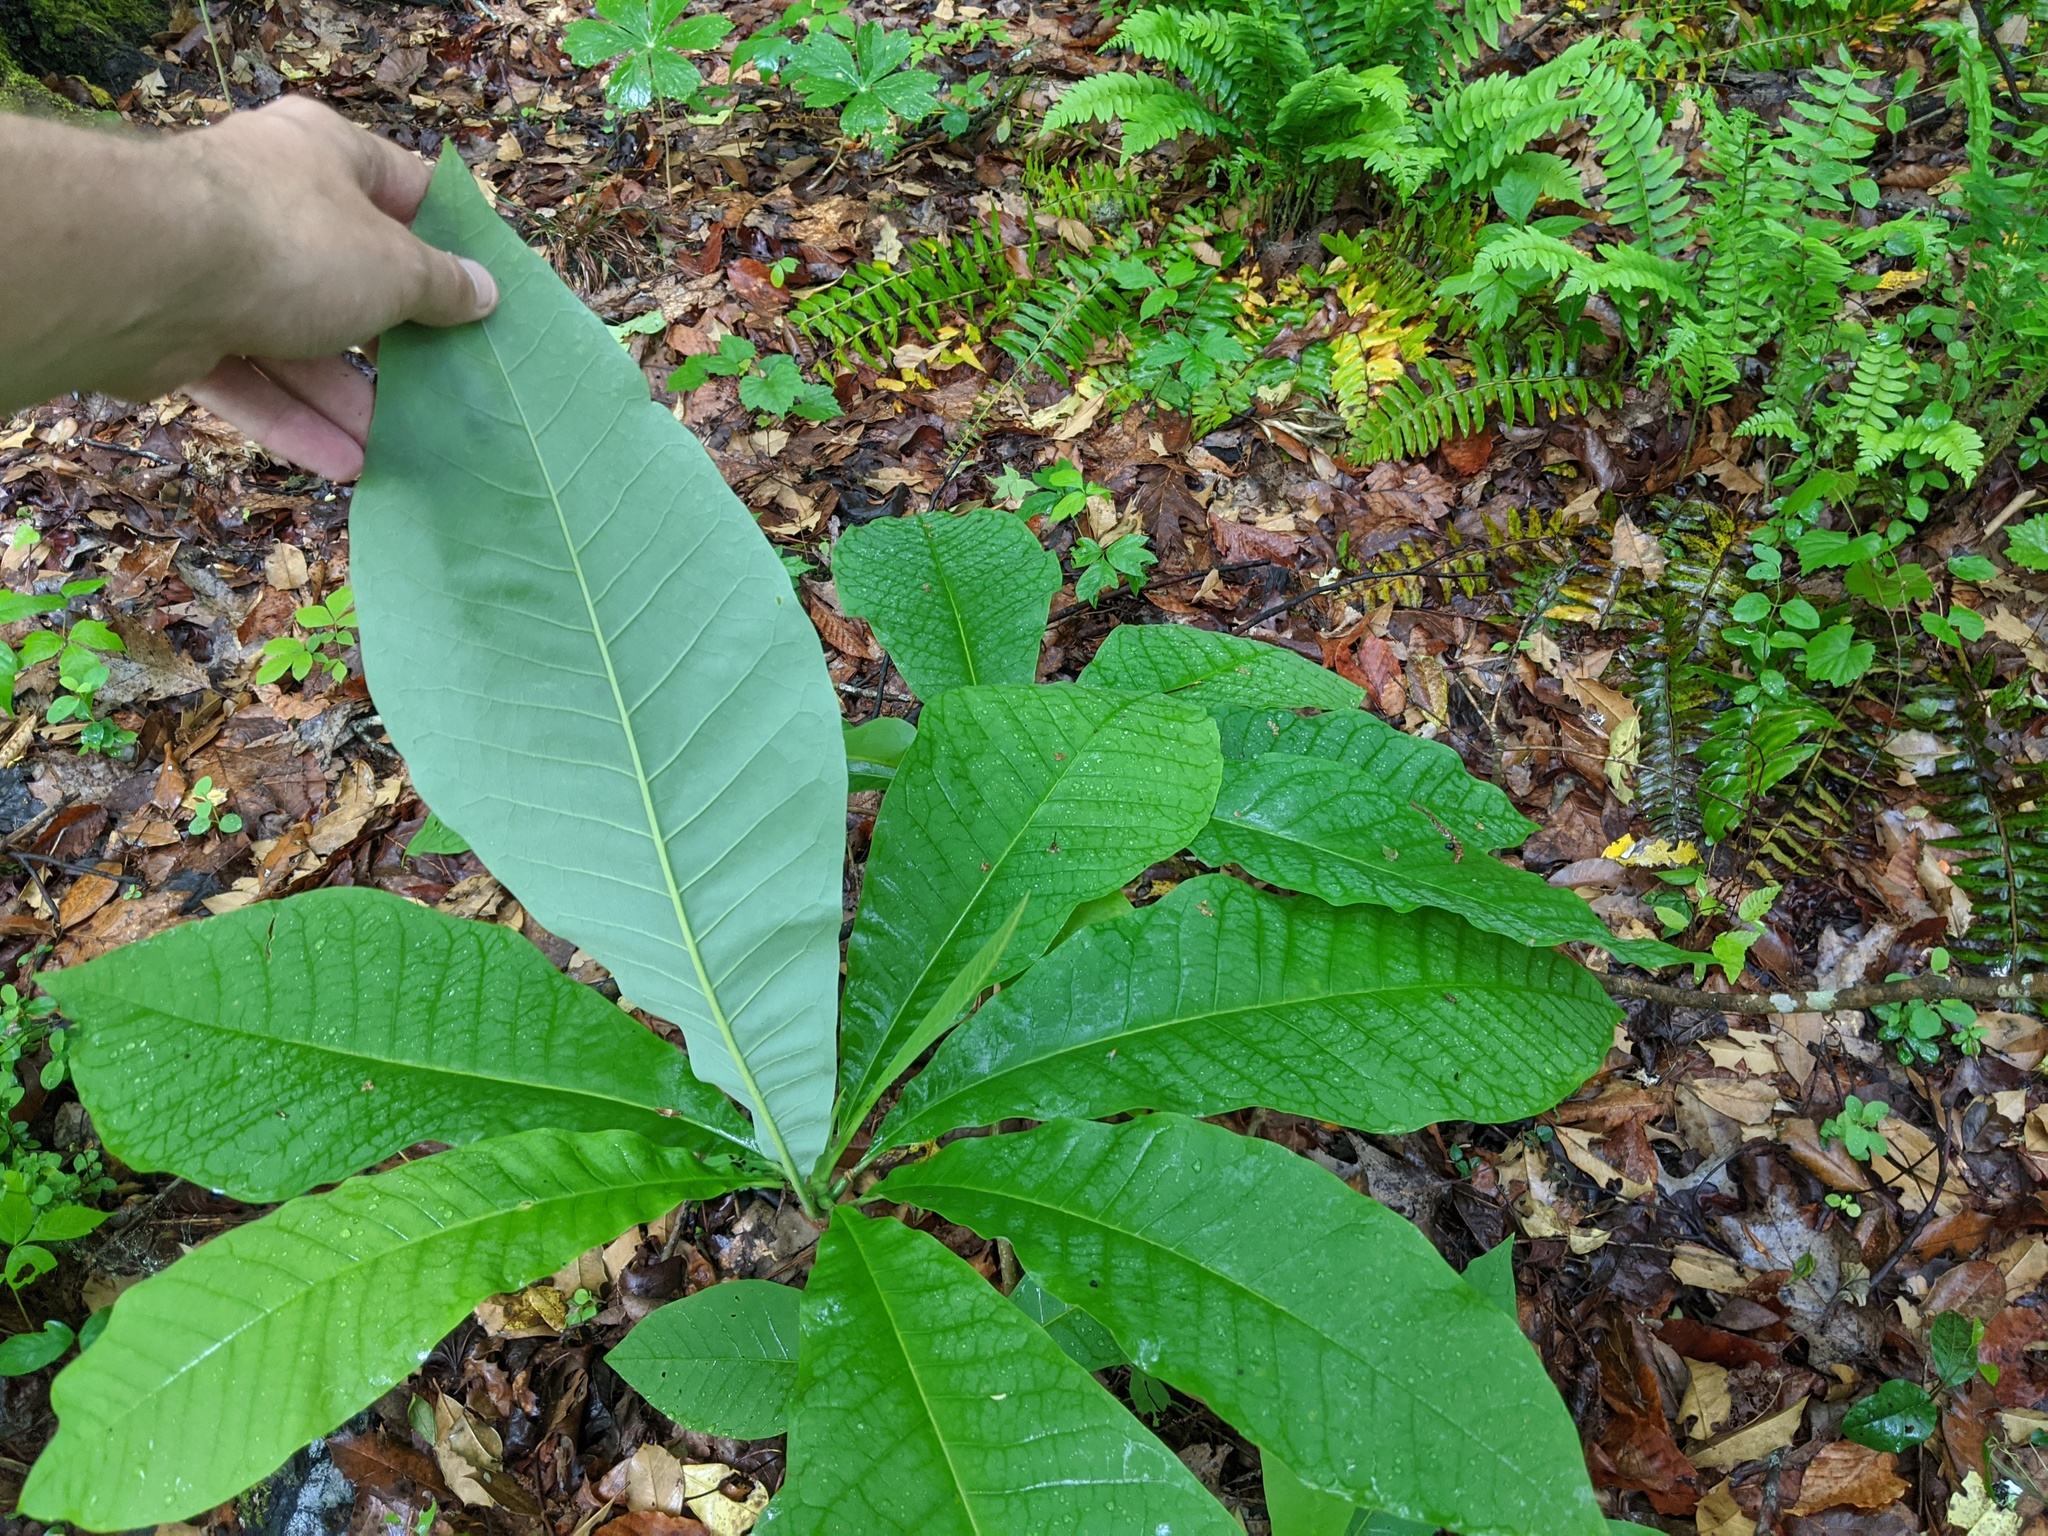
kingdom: Plantae
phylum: Tracheophyta
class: Magnoliopsida
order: Magnoliales
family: Magnoliaceae
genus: Magnolia
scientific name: Magnolia tripetala
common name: Umbrella magnolia
